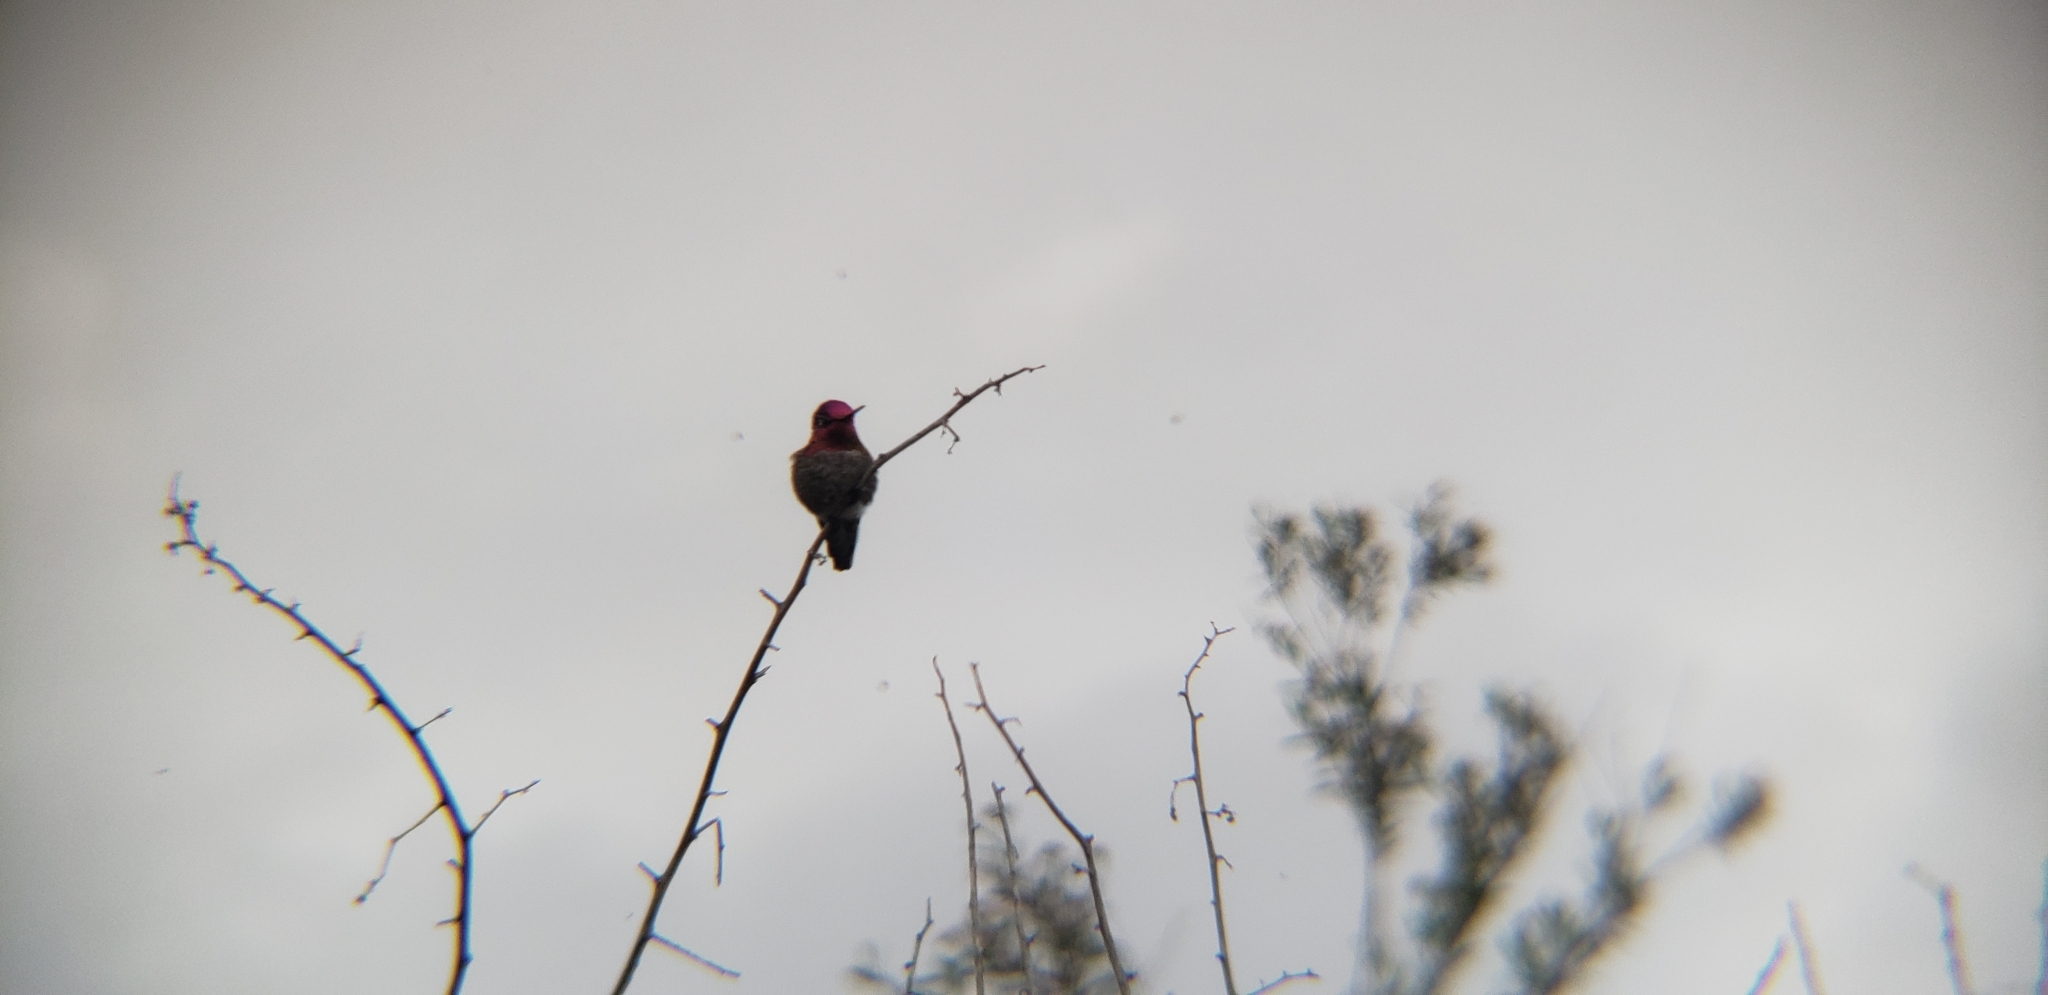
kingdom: Animalia
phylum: Chordata
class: Aves
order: Apodiformes
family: Trochilidae
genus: Calypte
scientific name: Calypte anna
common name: Anna's hummingbird
